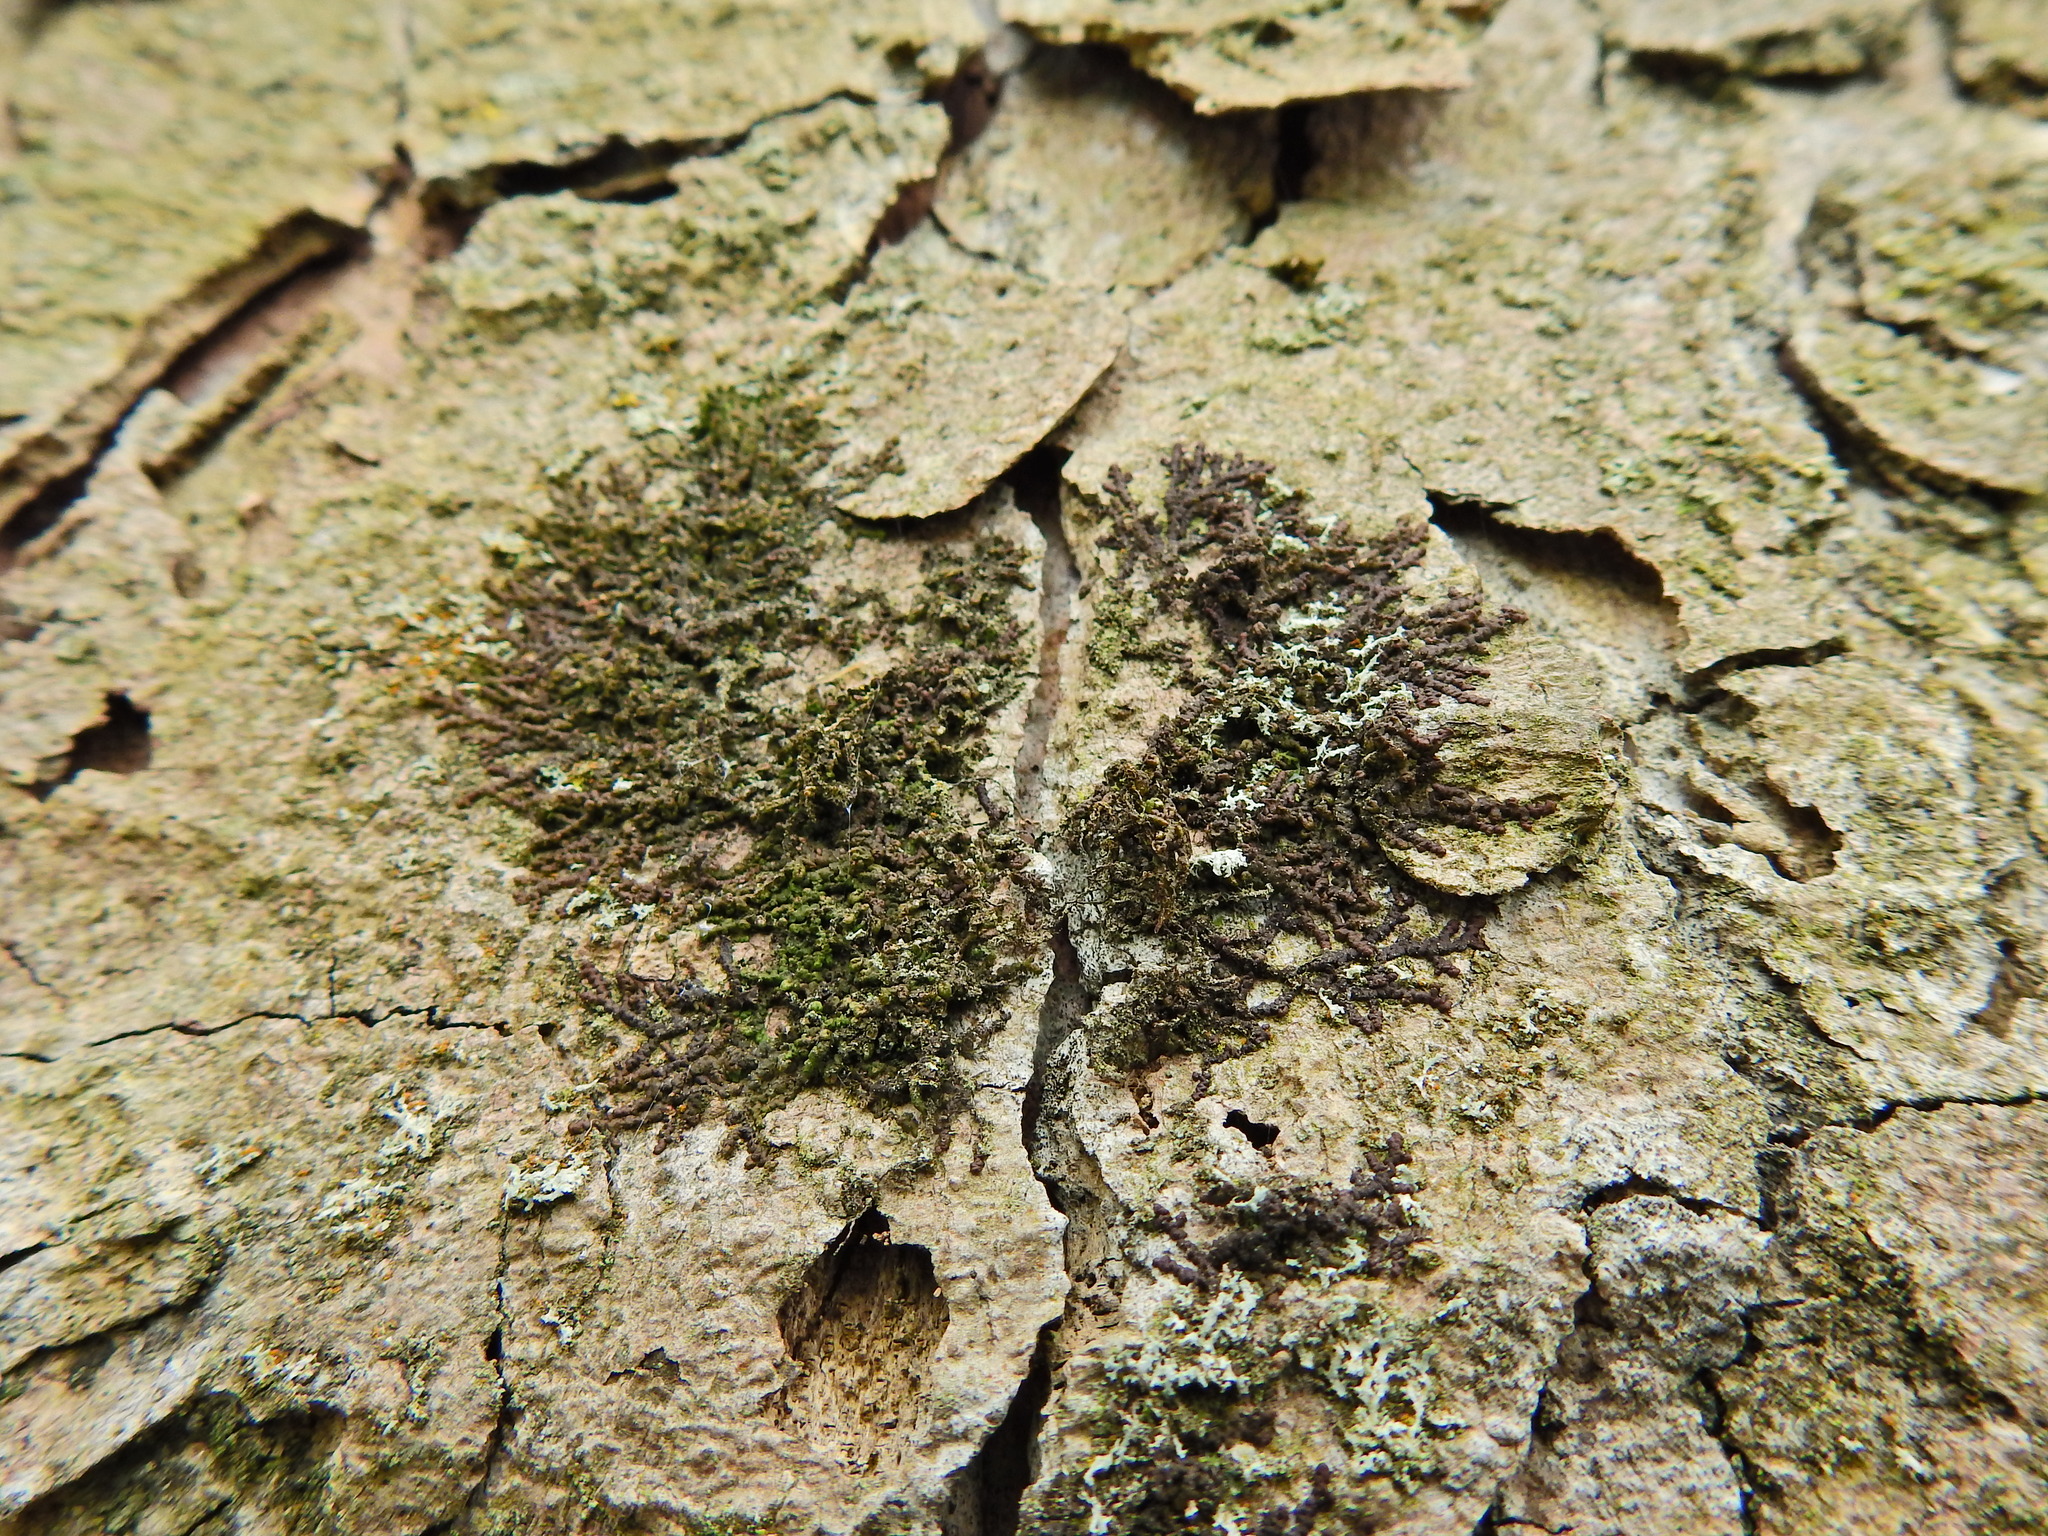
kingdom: Plantae
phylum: Marchantiophyta
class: Jungermanniopsida
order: Porellales
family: Frullaniaceae
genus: Frullania
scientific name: Frullania dilatata
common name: Dilated scalewort
